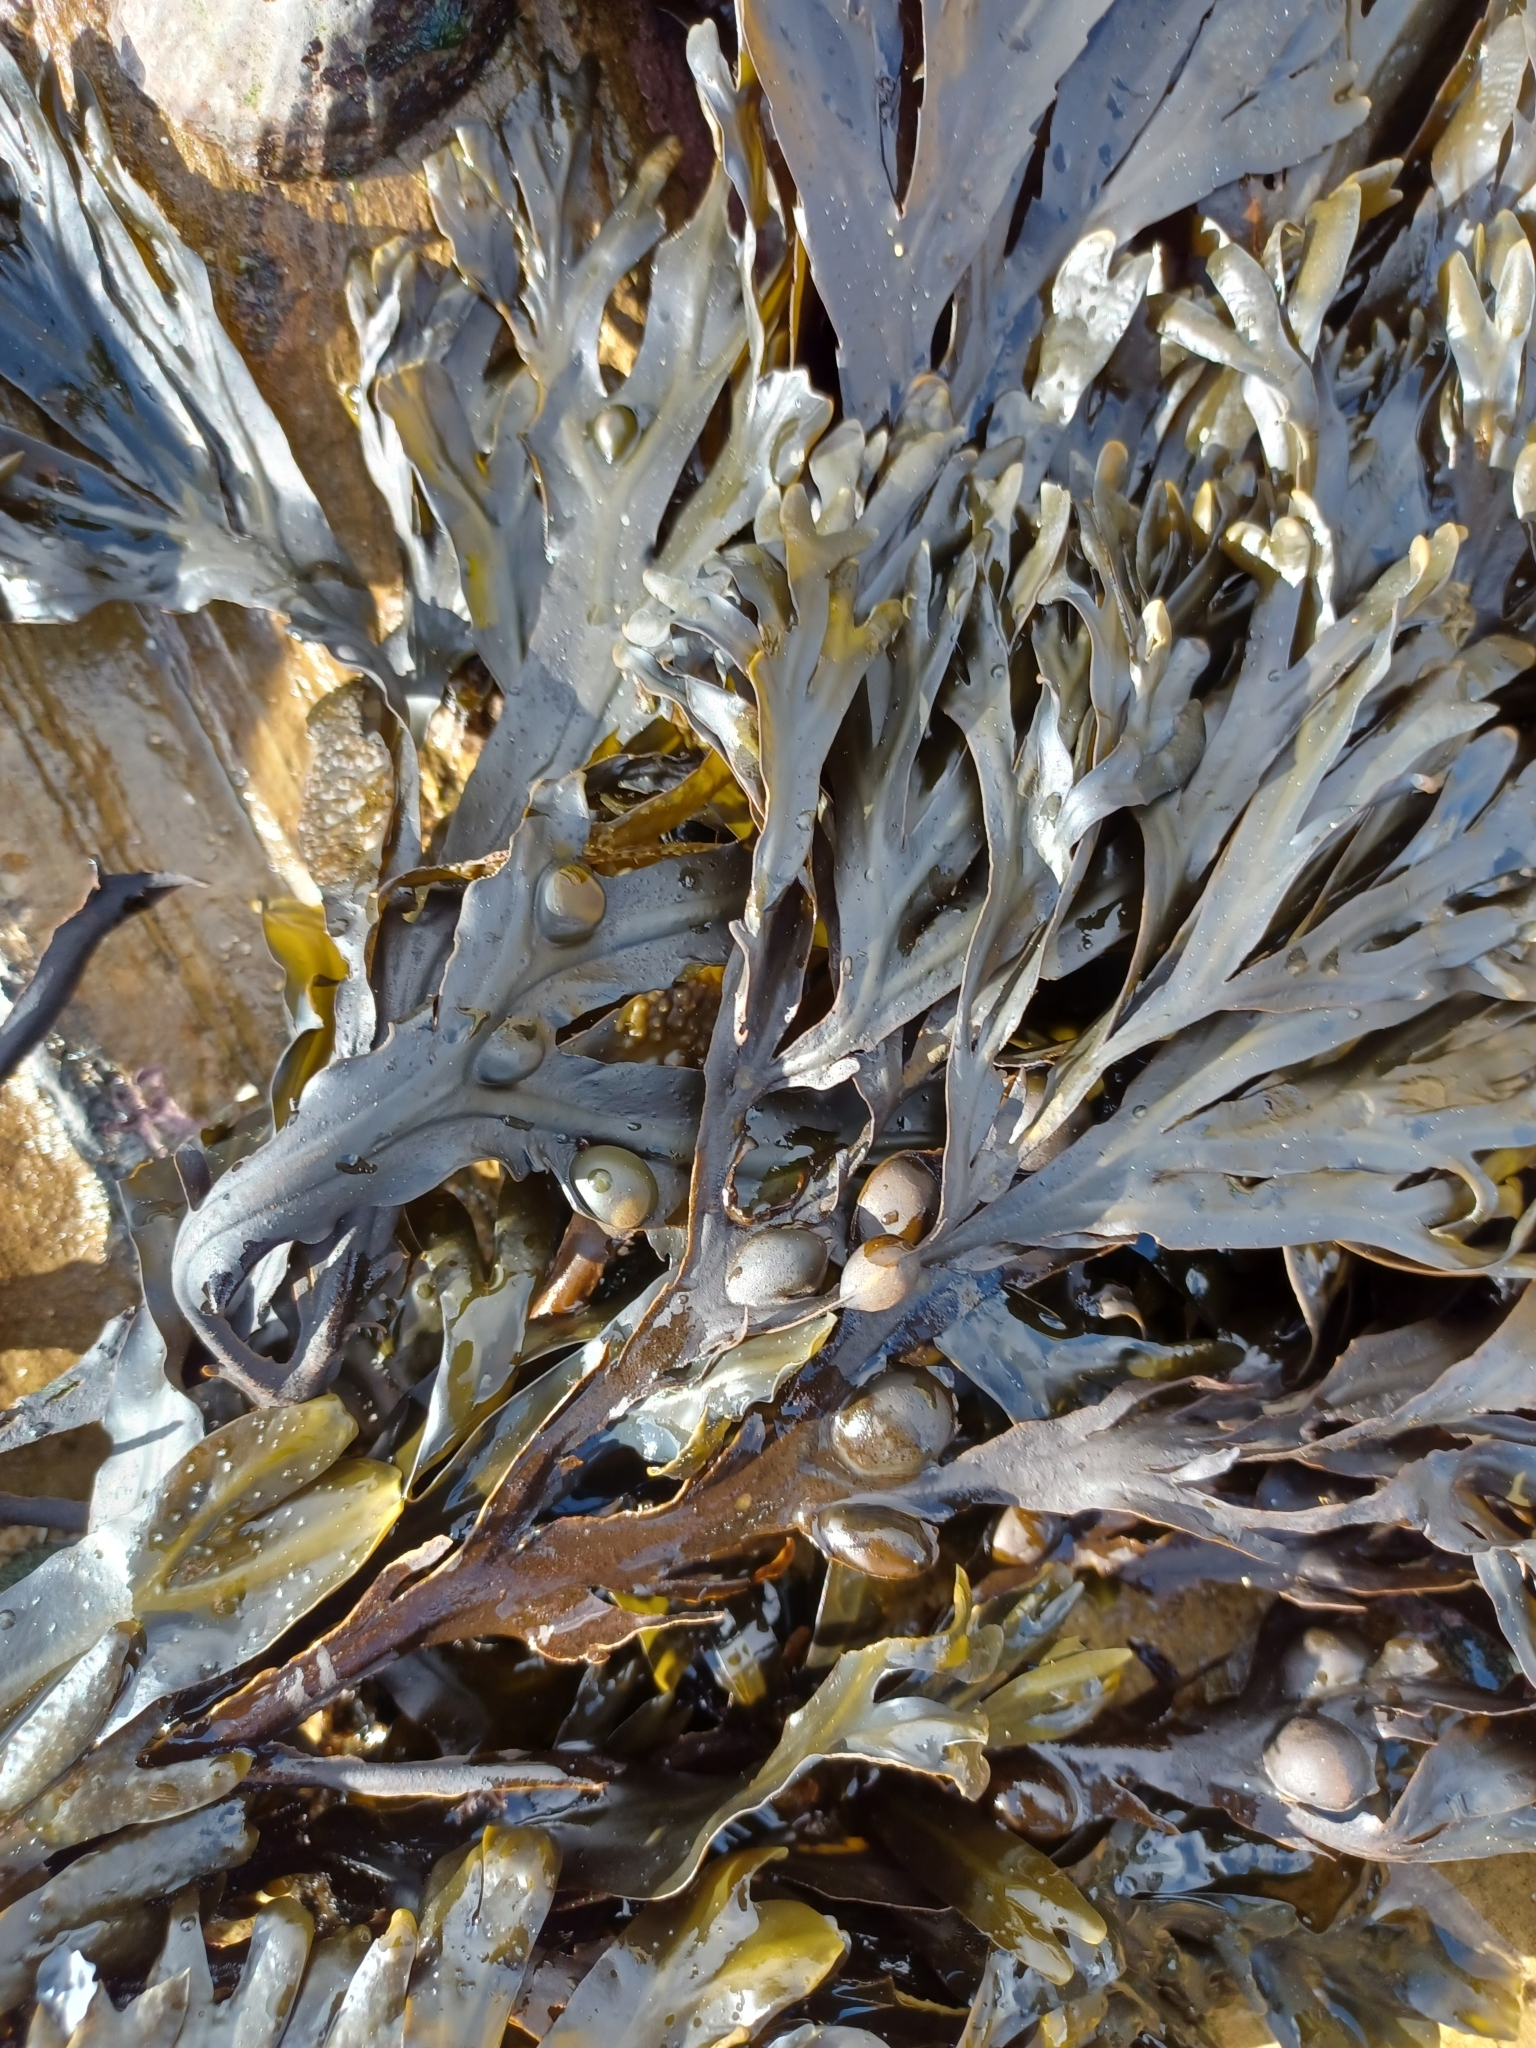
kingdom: Chromista
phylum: Ochrophyta
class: Phaeophyceae
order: Fucales
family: Fucaceae
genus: Fucus
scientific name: Fucus vesiculosus
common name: Bladder wrack
